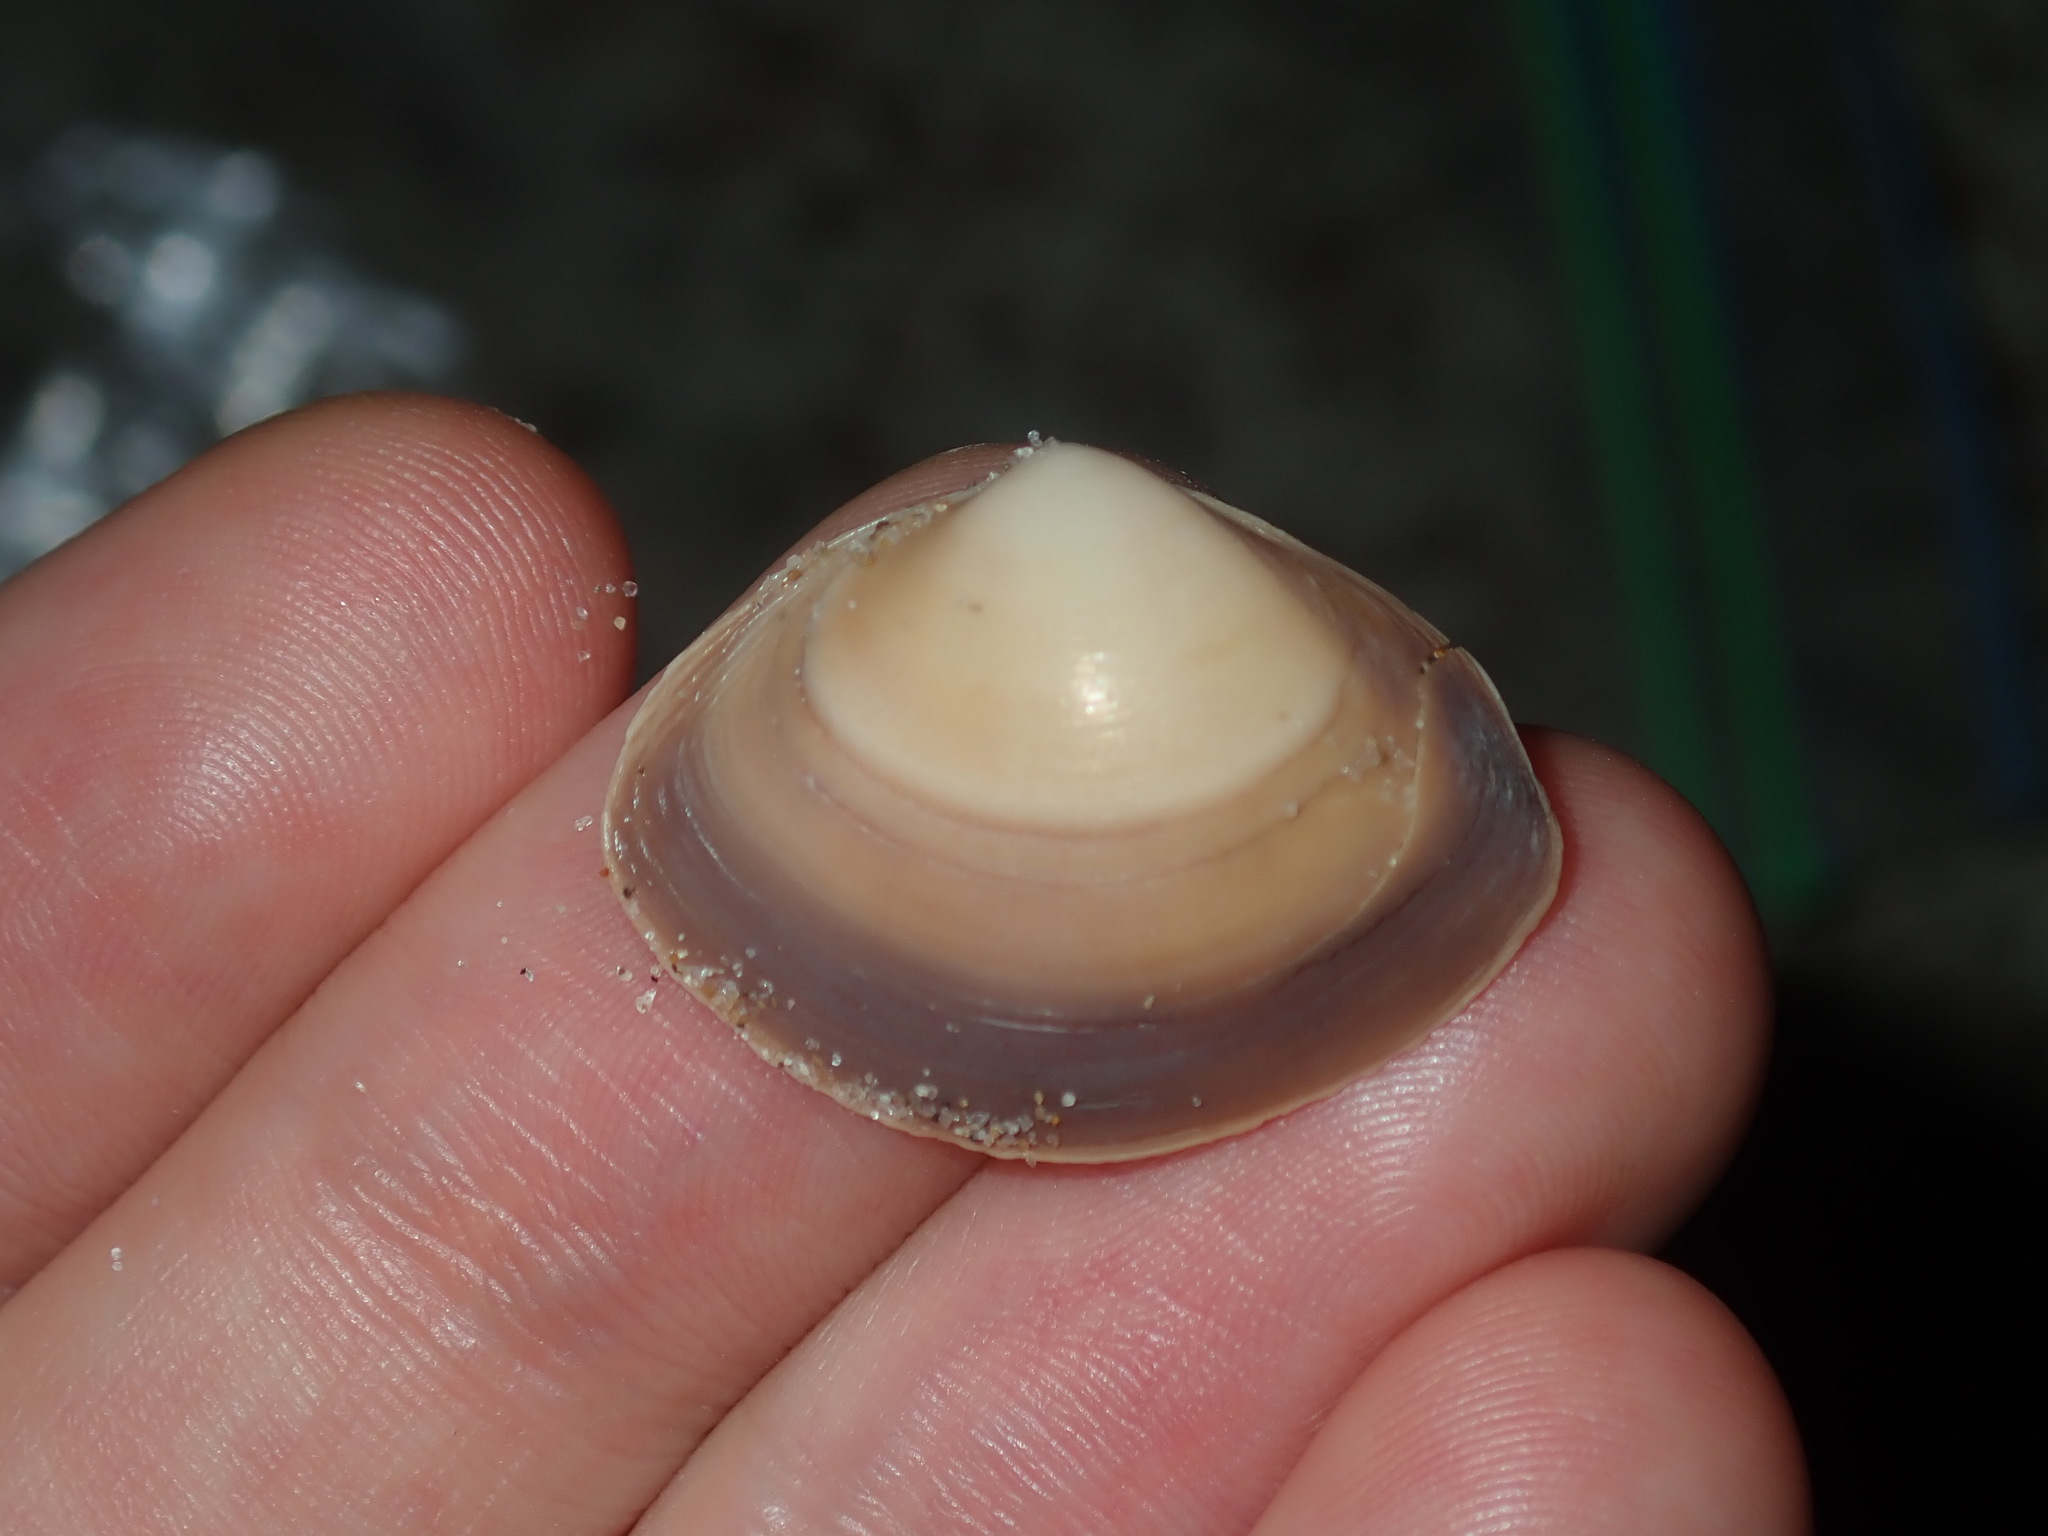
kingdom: Animalia
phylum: Mollusca
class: Bivalvia
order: Venerida
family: Mactridae
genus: Mactra
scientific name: Mactra pusilla
